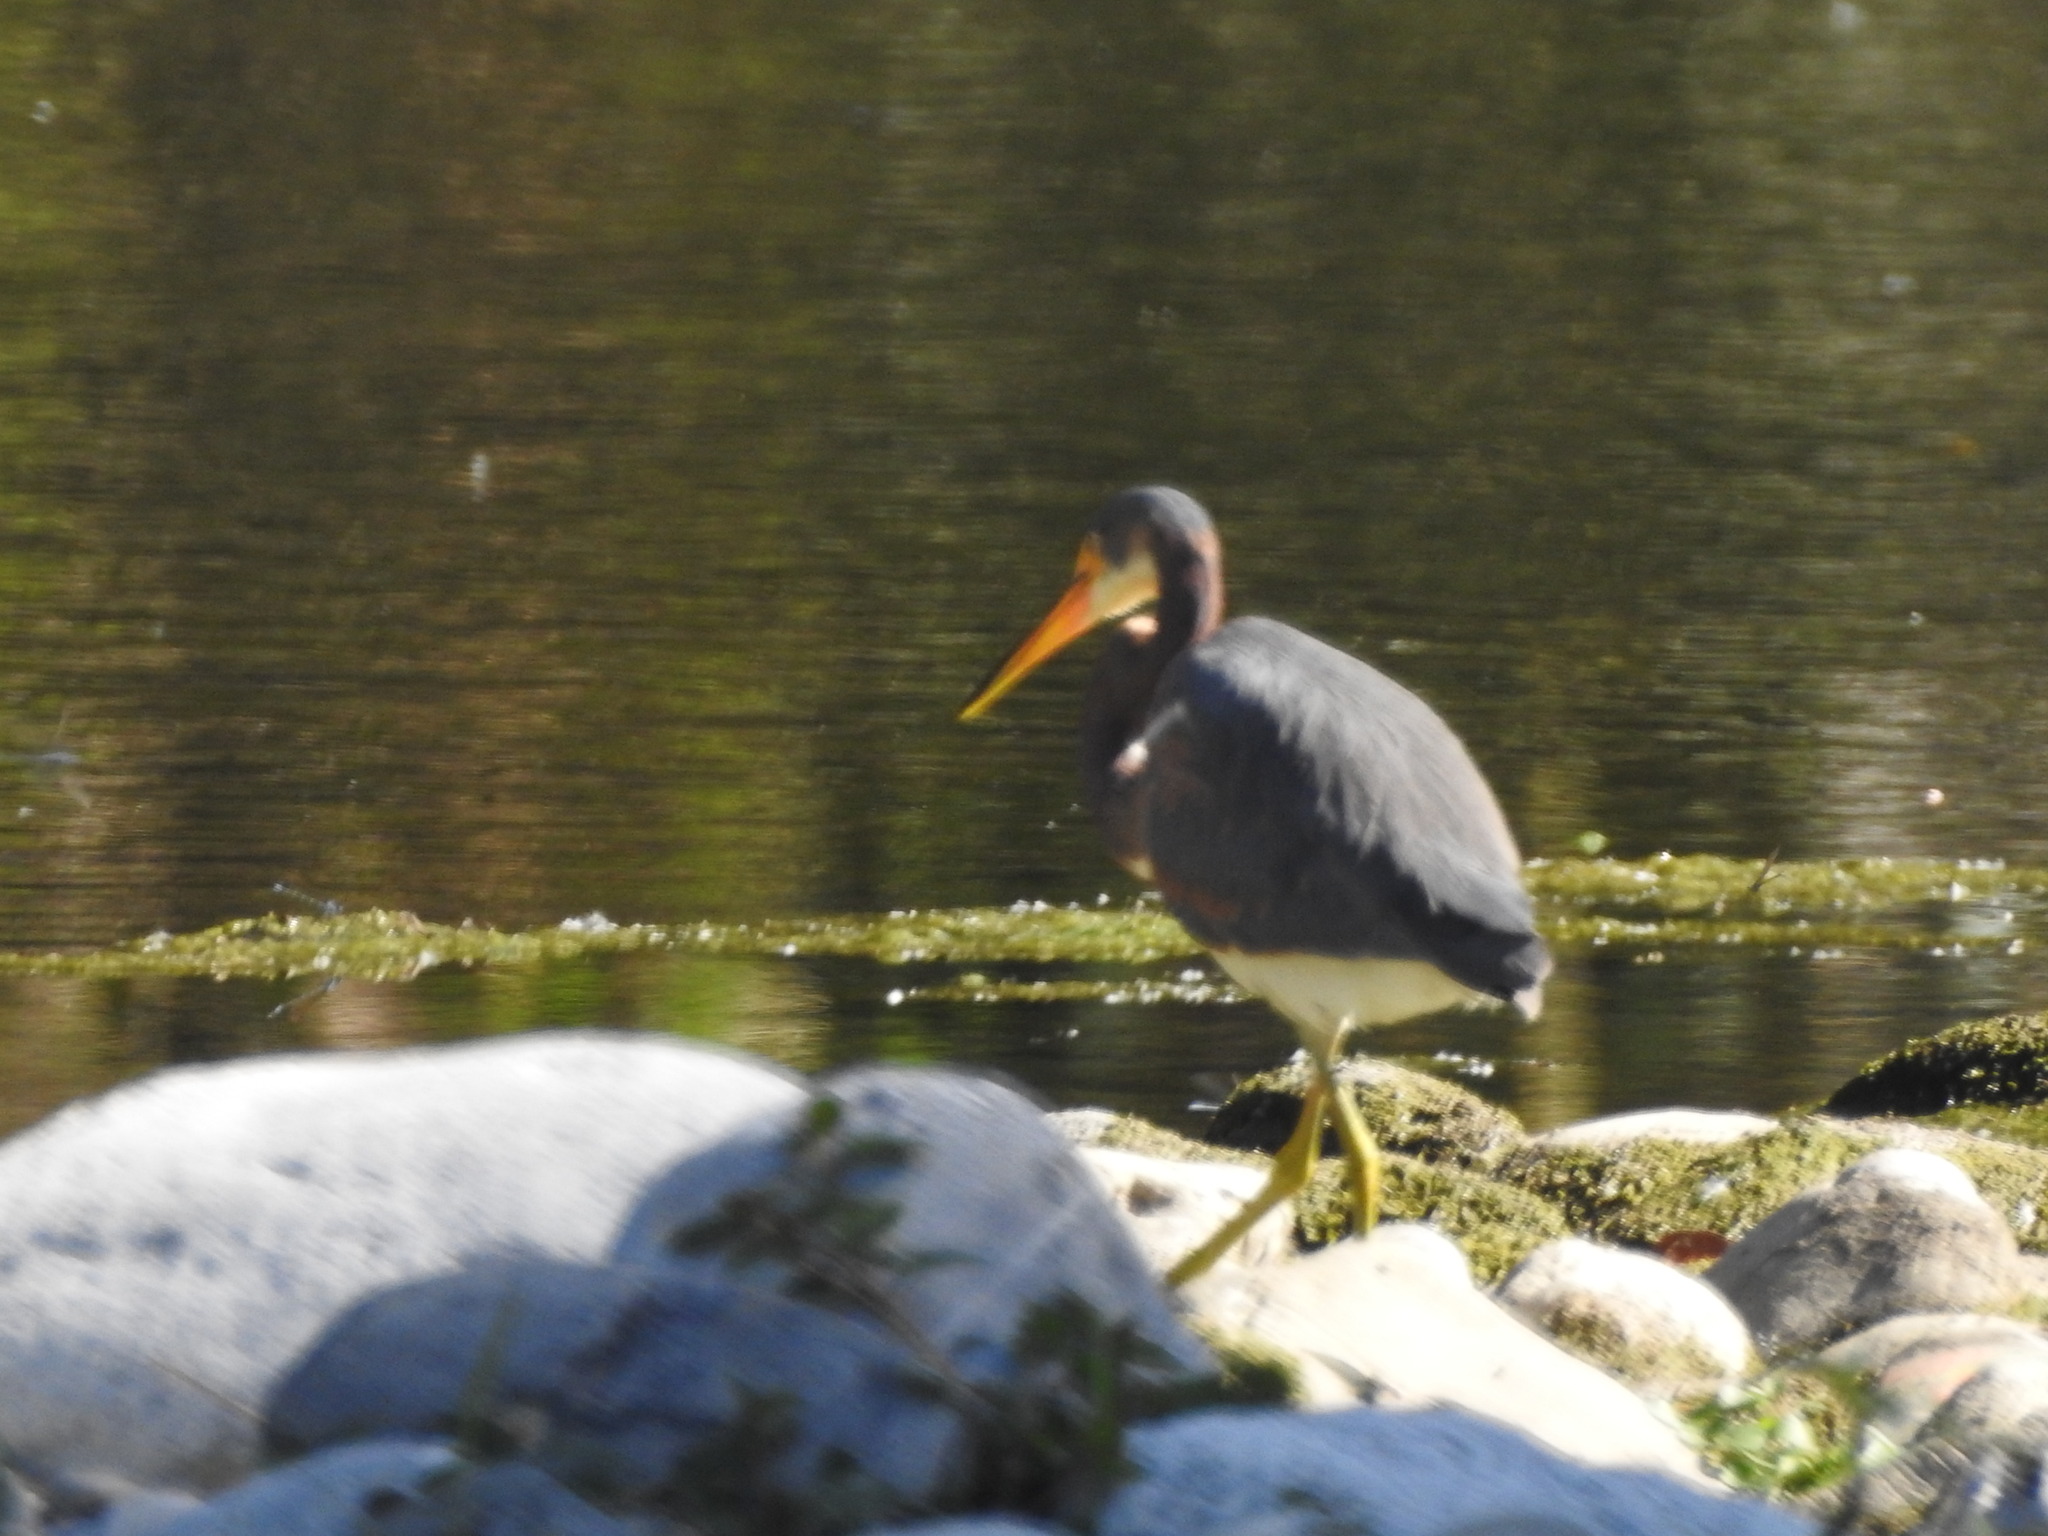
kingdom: Animalia
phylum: Chordata
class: Aves
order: Pelecaniformes
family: Ardeidae
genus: Egretta
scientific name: Egretta tricolor
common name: Tricolored heron
